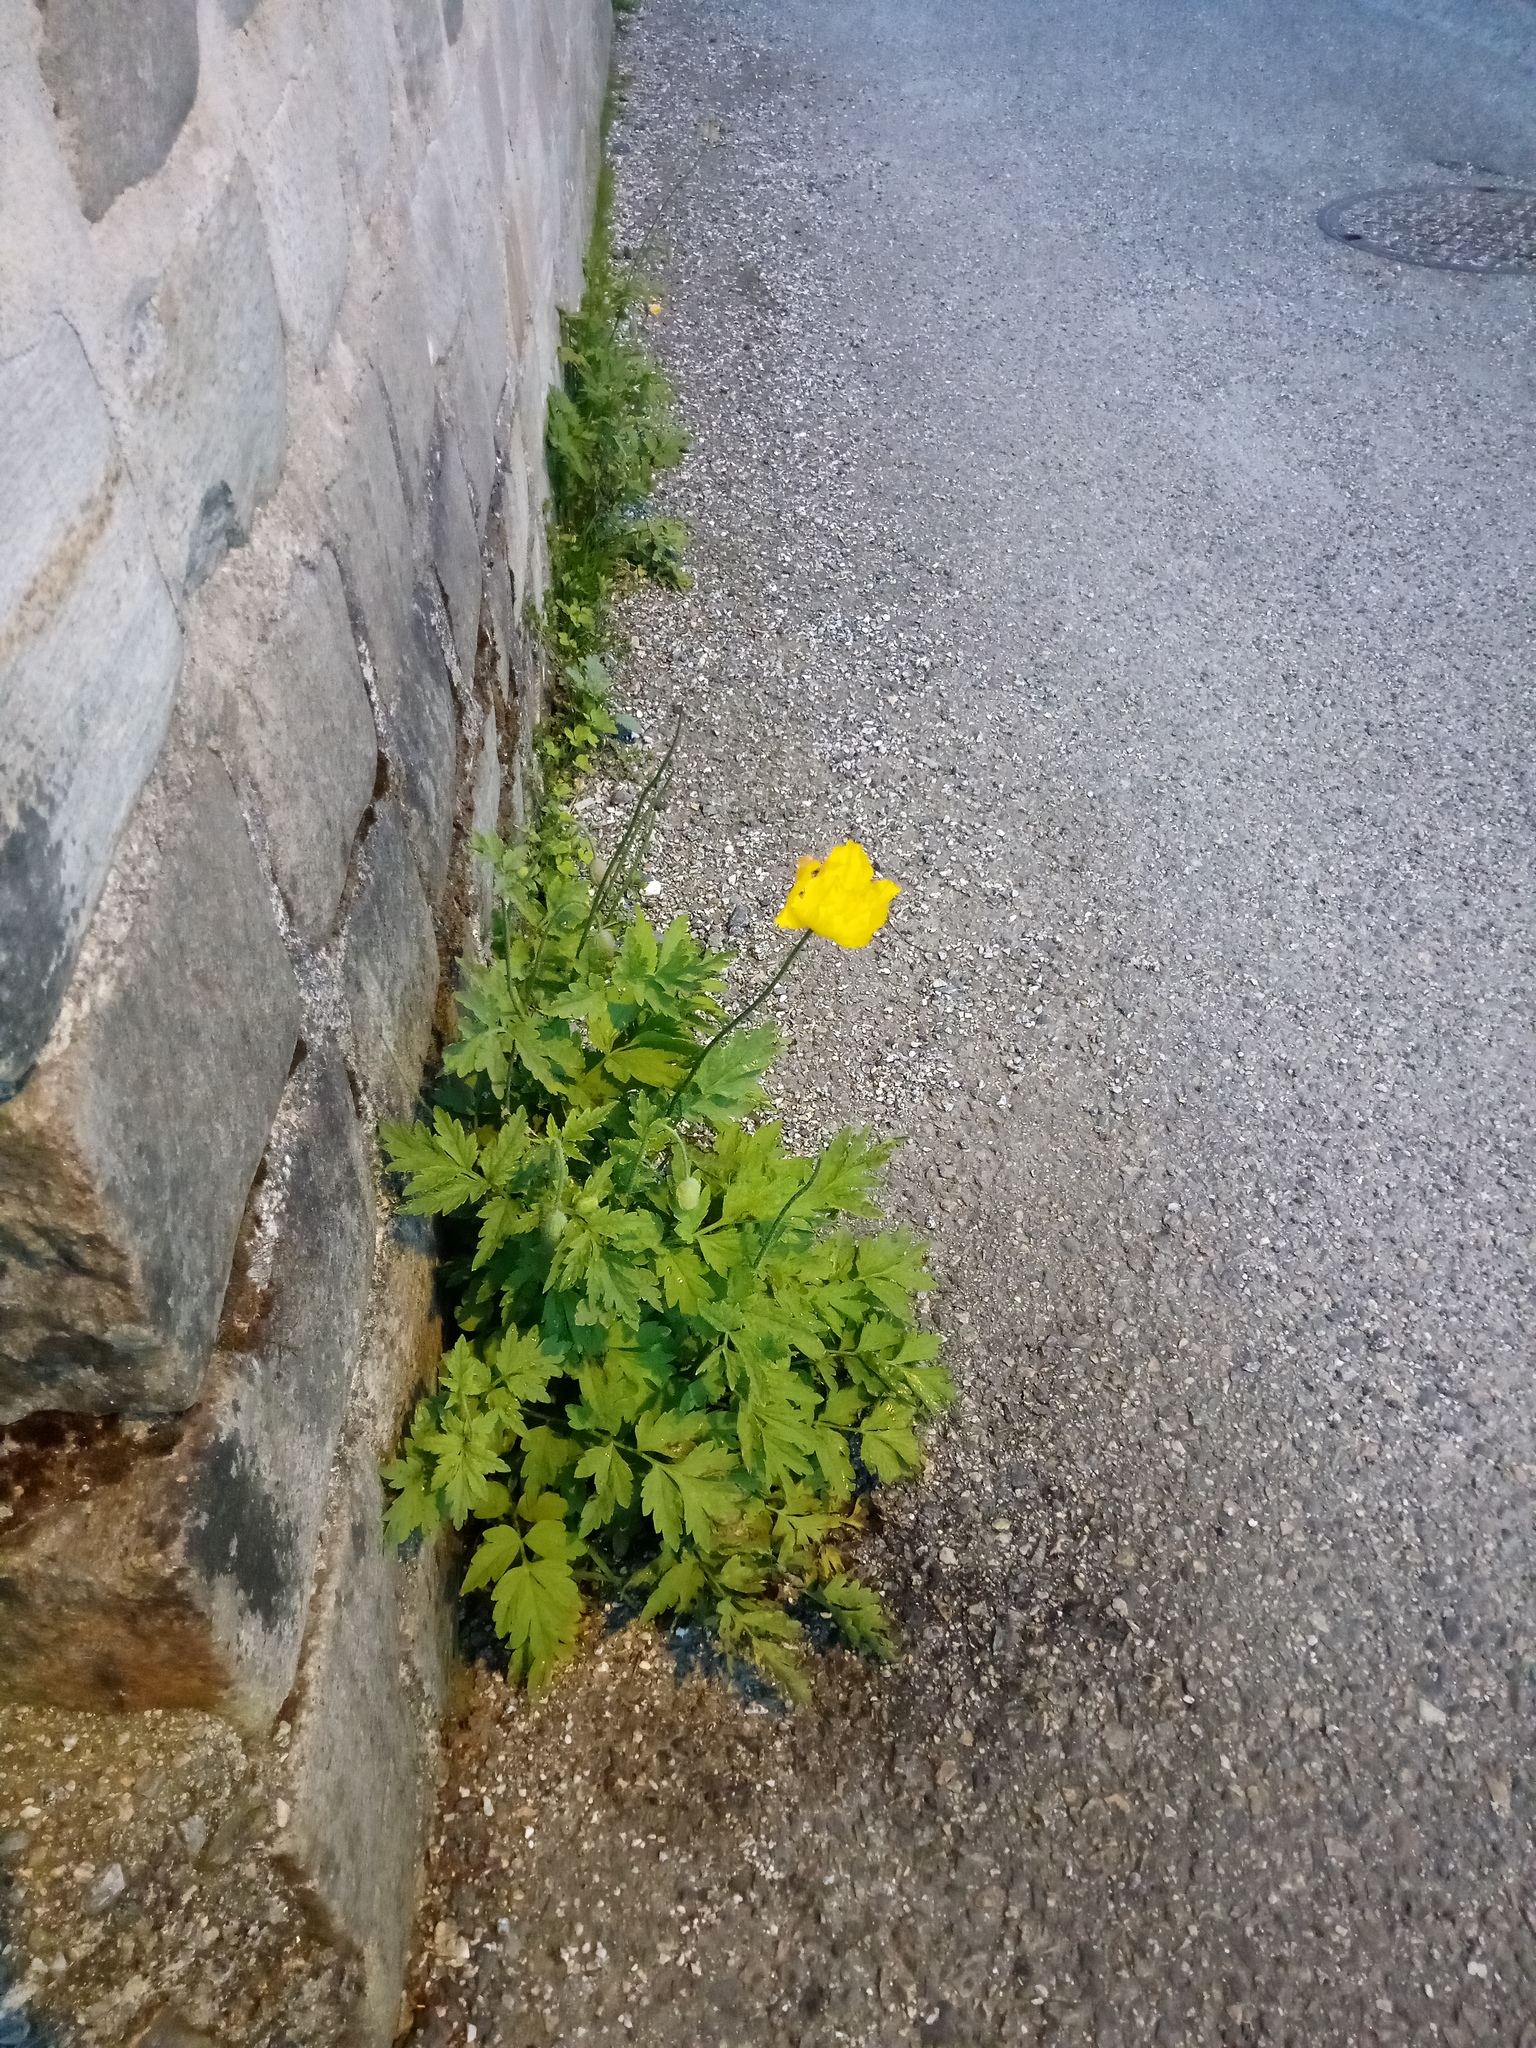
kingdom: Plantae
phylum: Tracheophyta
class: Magnoliopsida
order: Ranunculales
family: Papaveraceae
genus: Papaver
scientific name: Papaver cambricum
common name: Poppy
